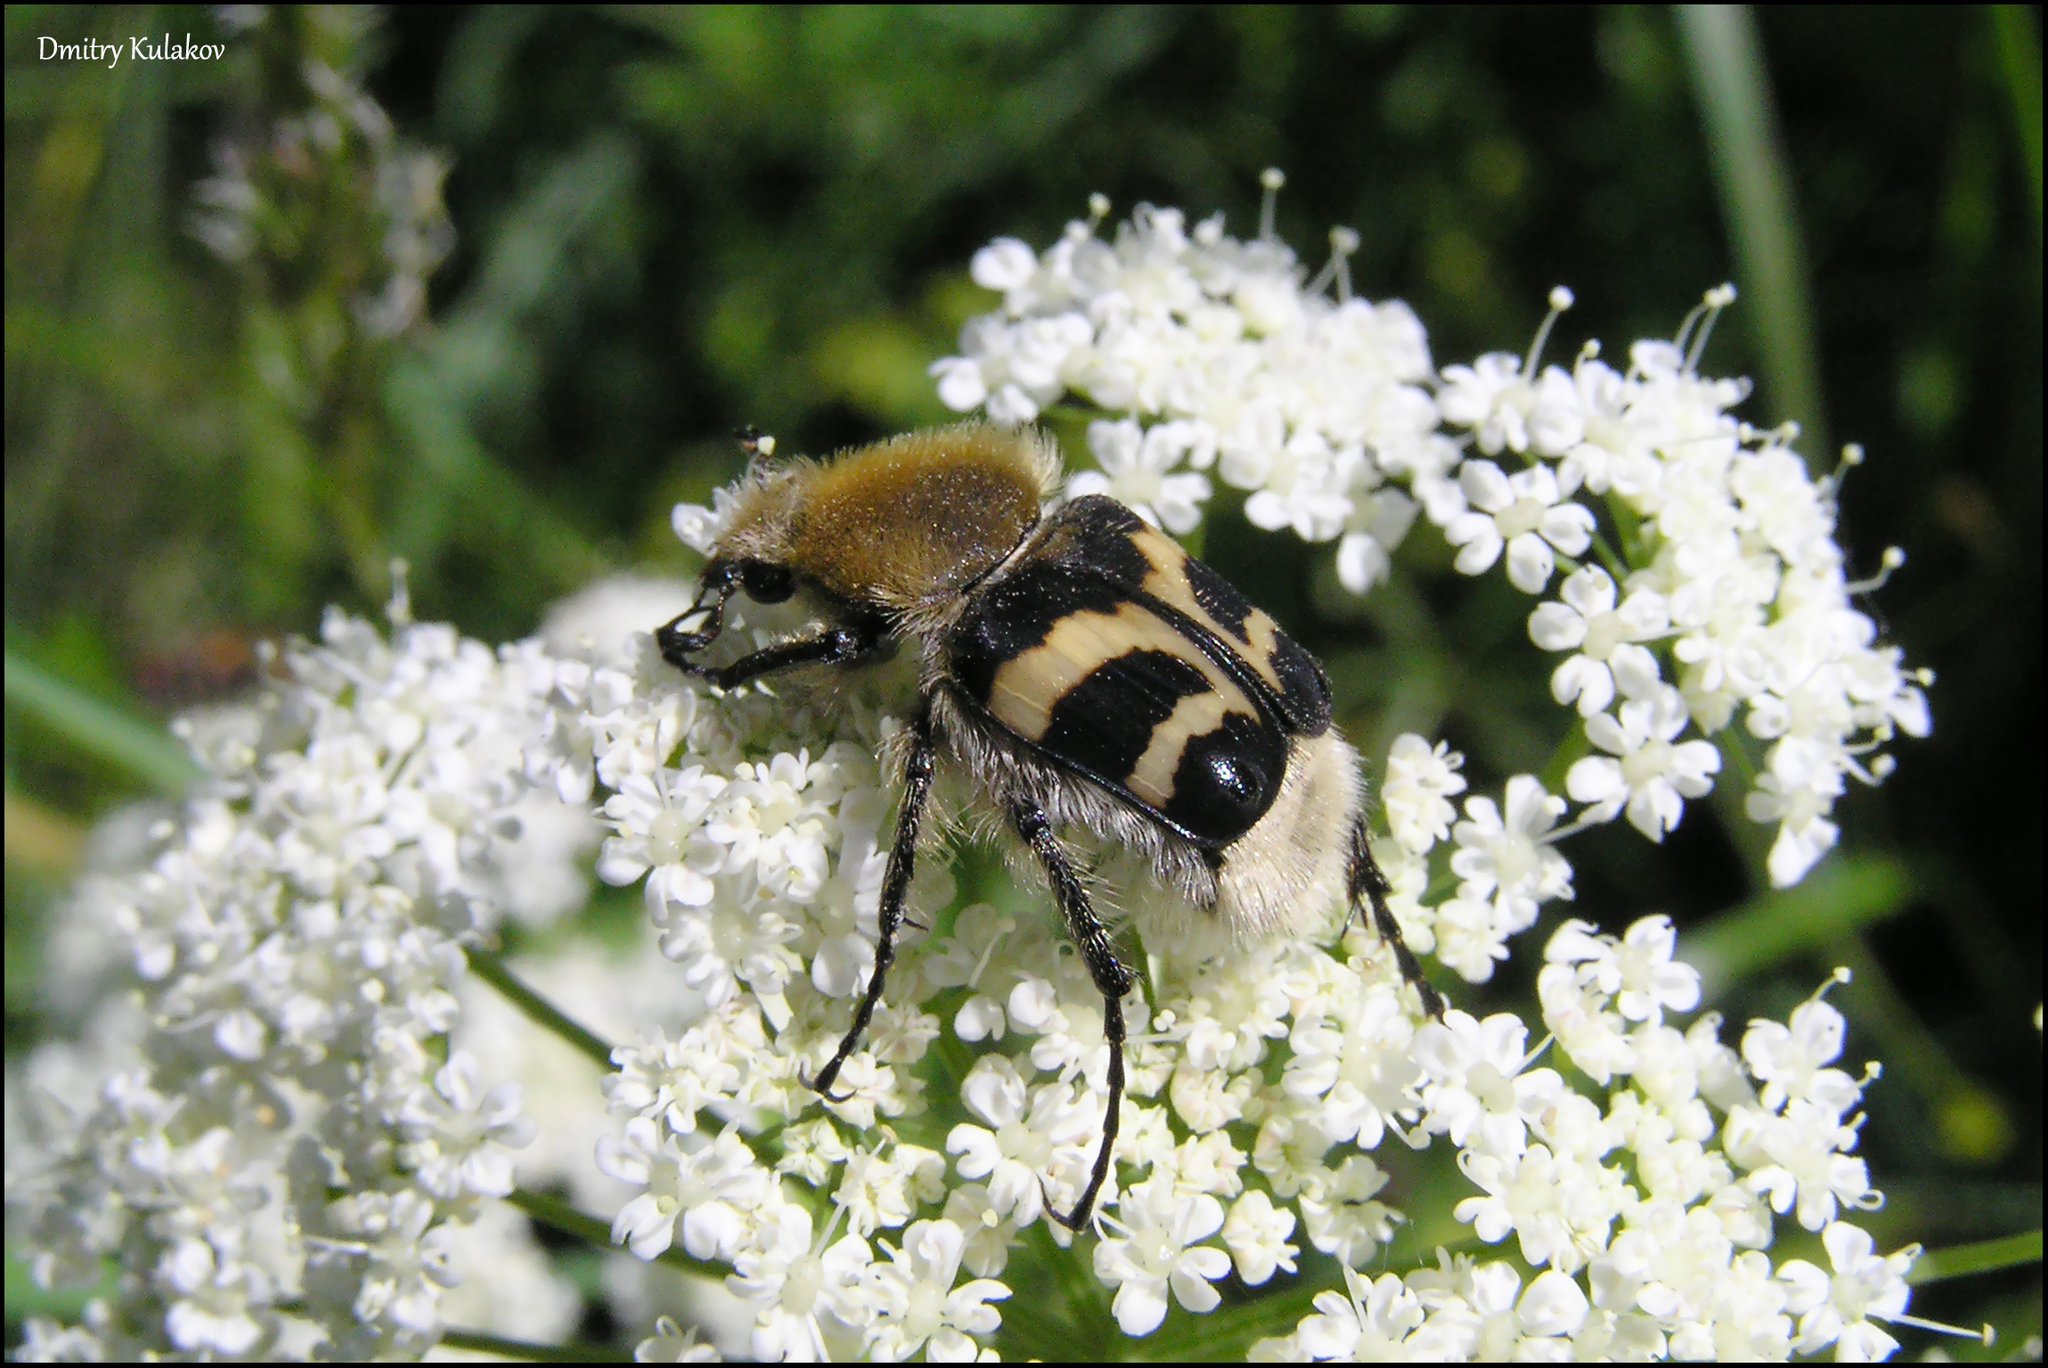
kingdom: Animalia
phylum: Arthropoda
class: Insecta
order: Coleoptera
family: Scarabaeidae
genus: Trichius
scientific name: Trichius fasciatus
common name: Bee beetle
